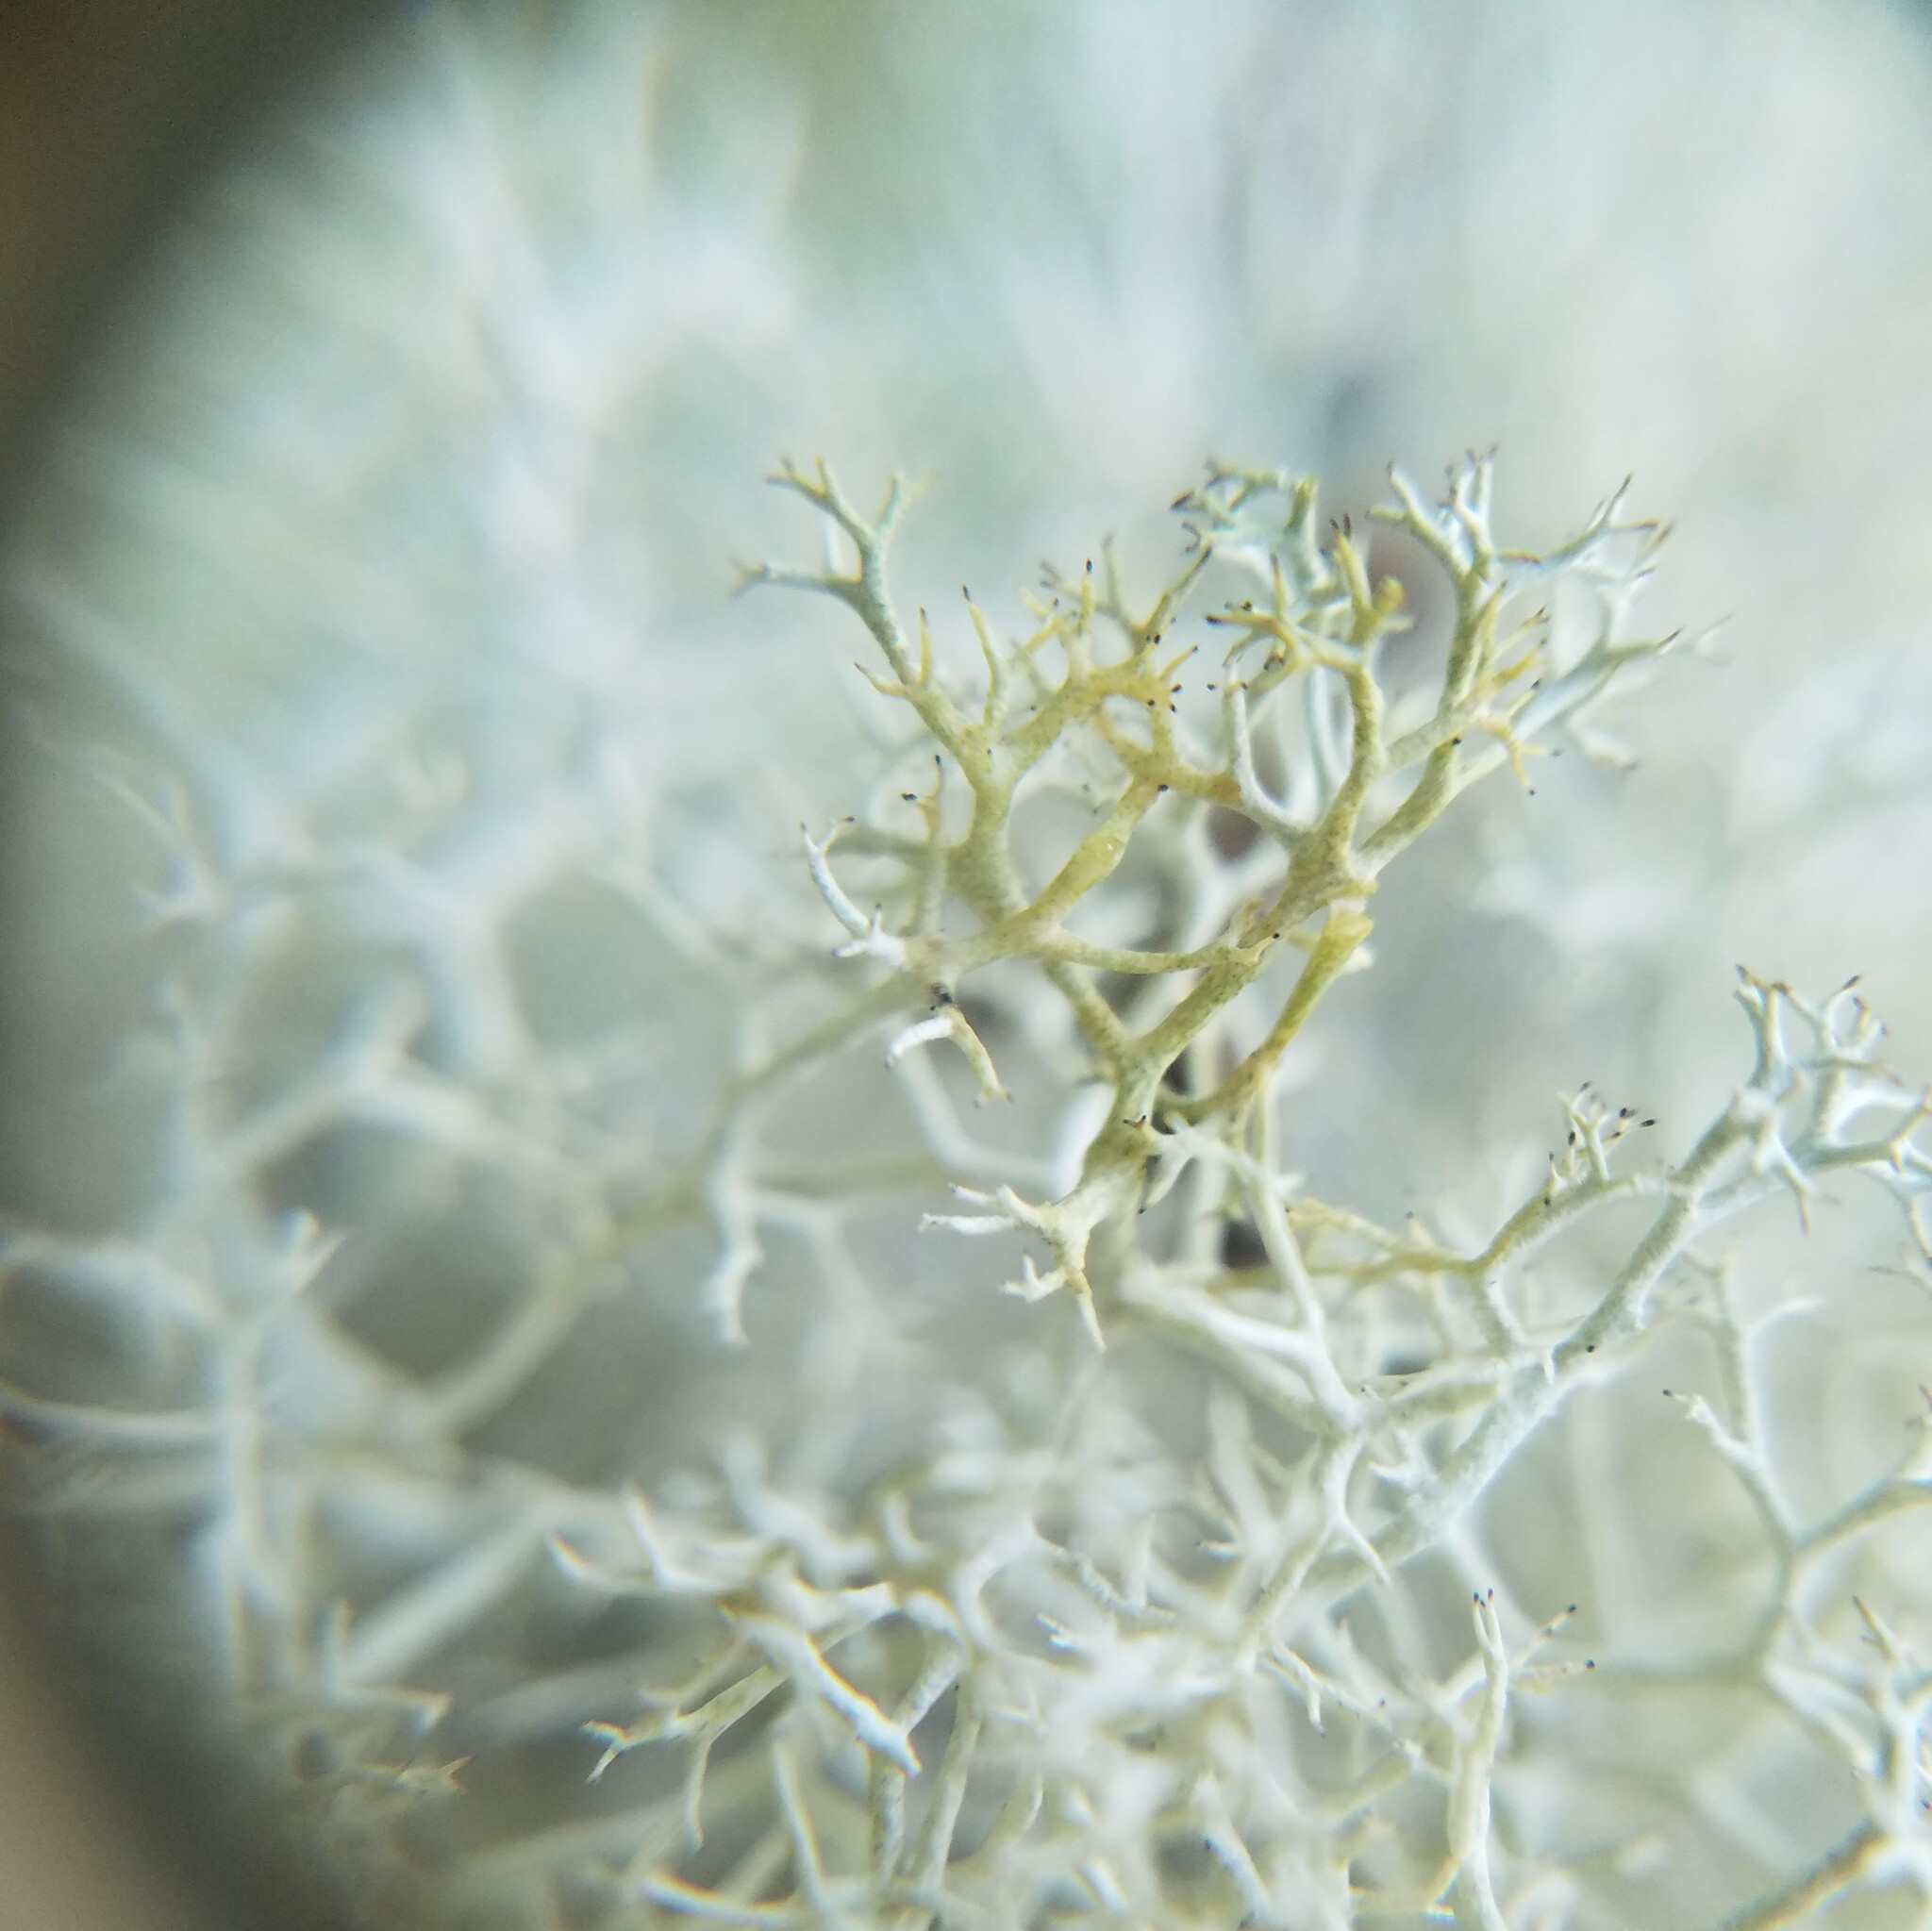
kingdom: Fungi
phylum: Ascomycota
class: Lecanoromycetes
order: Lecanorales
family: Cladoniaceae
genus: Cladonia
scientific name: Cladonia sandstedei
